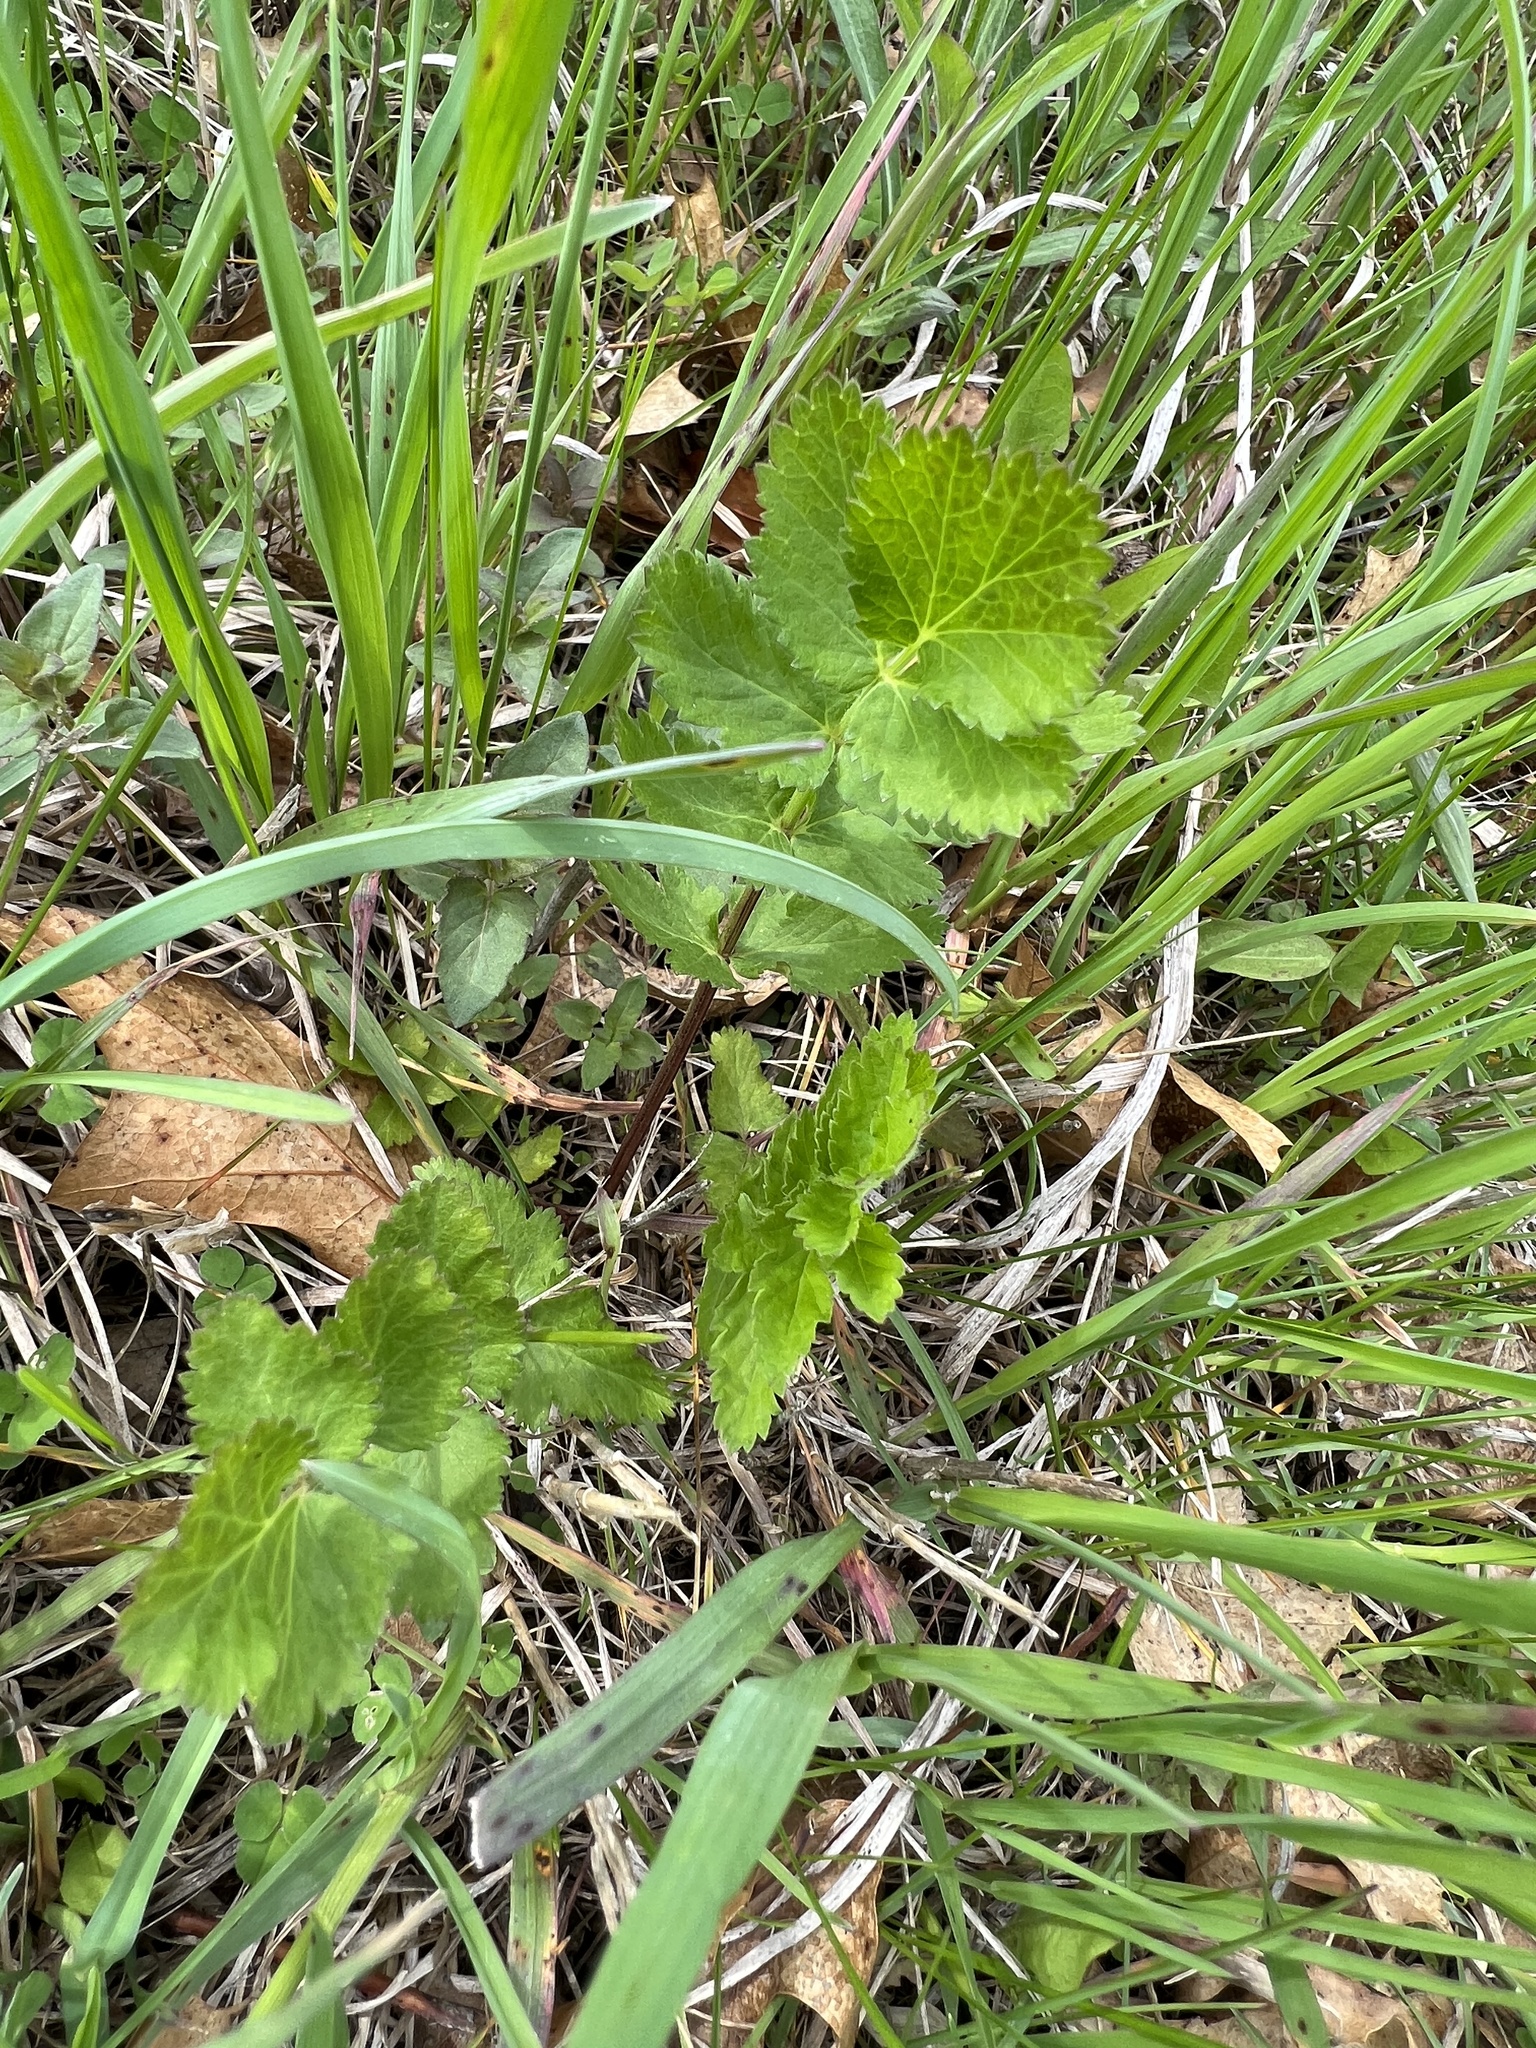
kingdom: Plantae
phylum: Tracheophyta
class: Magnoliopsida
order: Apiales
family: Apiaceae
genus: Pastinaca
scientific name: Pastinaca sativa
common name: Wild parsnip
